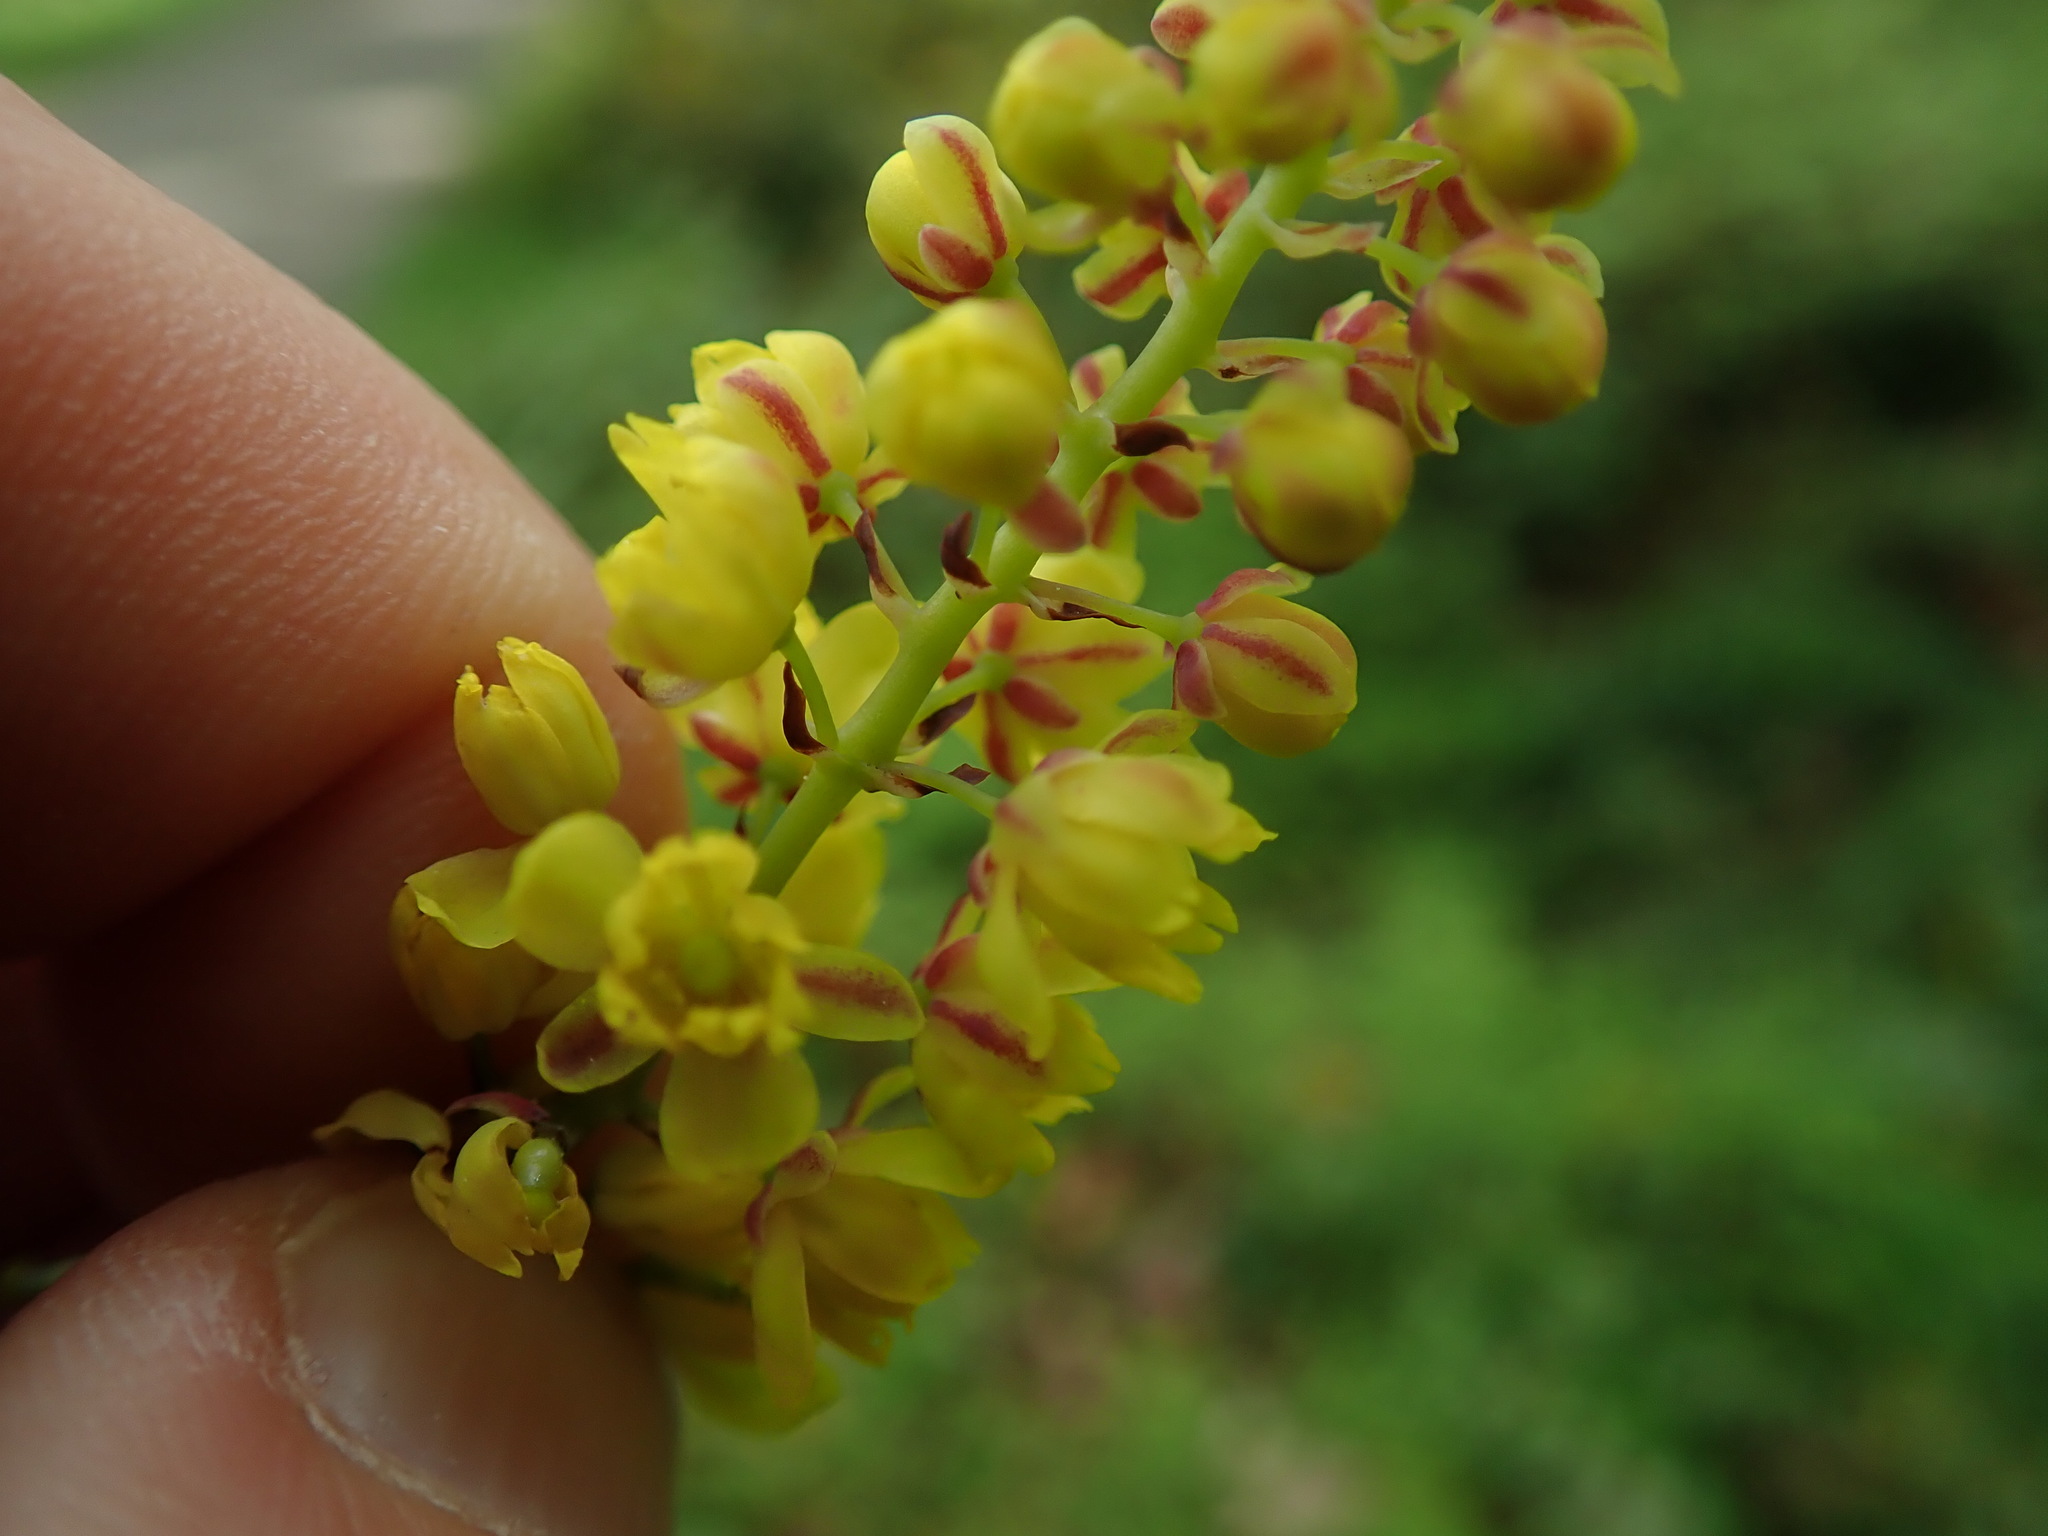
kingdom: Plantae
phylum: Tracheophyta
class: Magnoliopsida
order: Ranunculales
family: Berberidaceae
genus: Mahonia
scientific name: Mahonia nervosa
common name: Cascade oregon-grape
